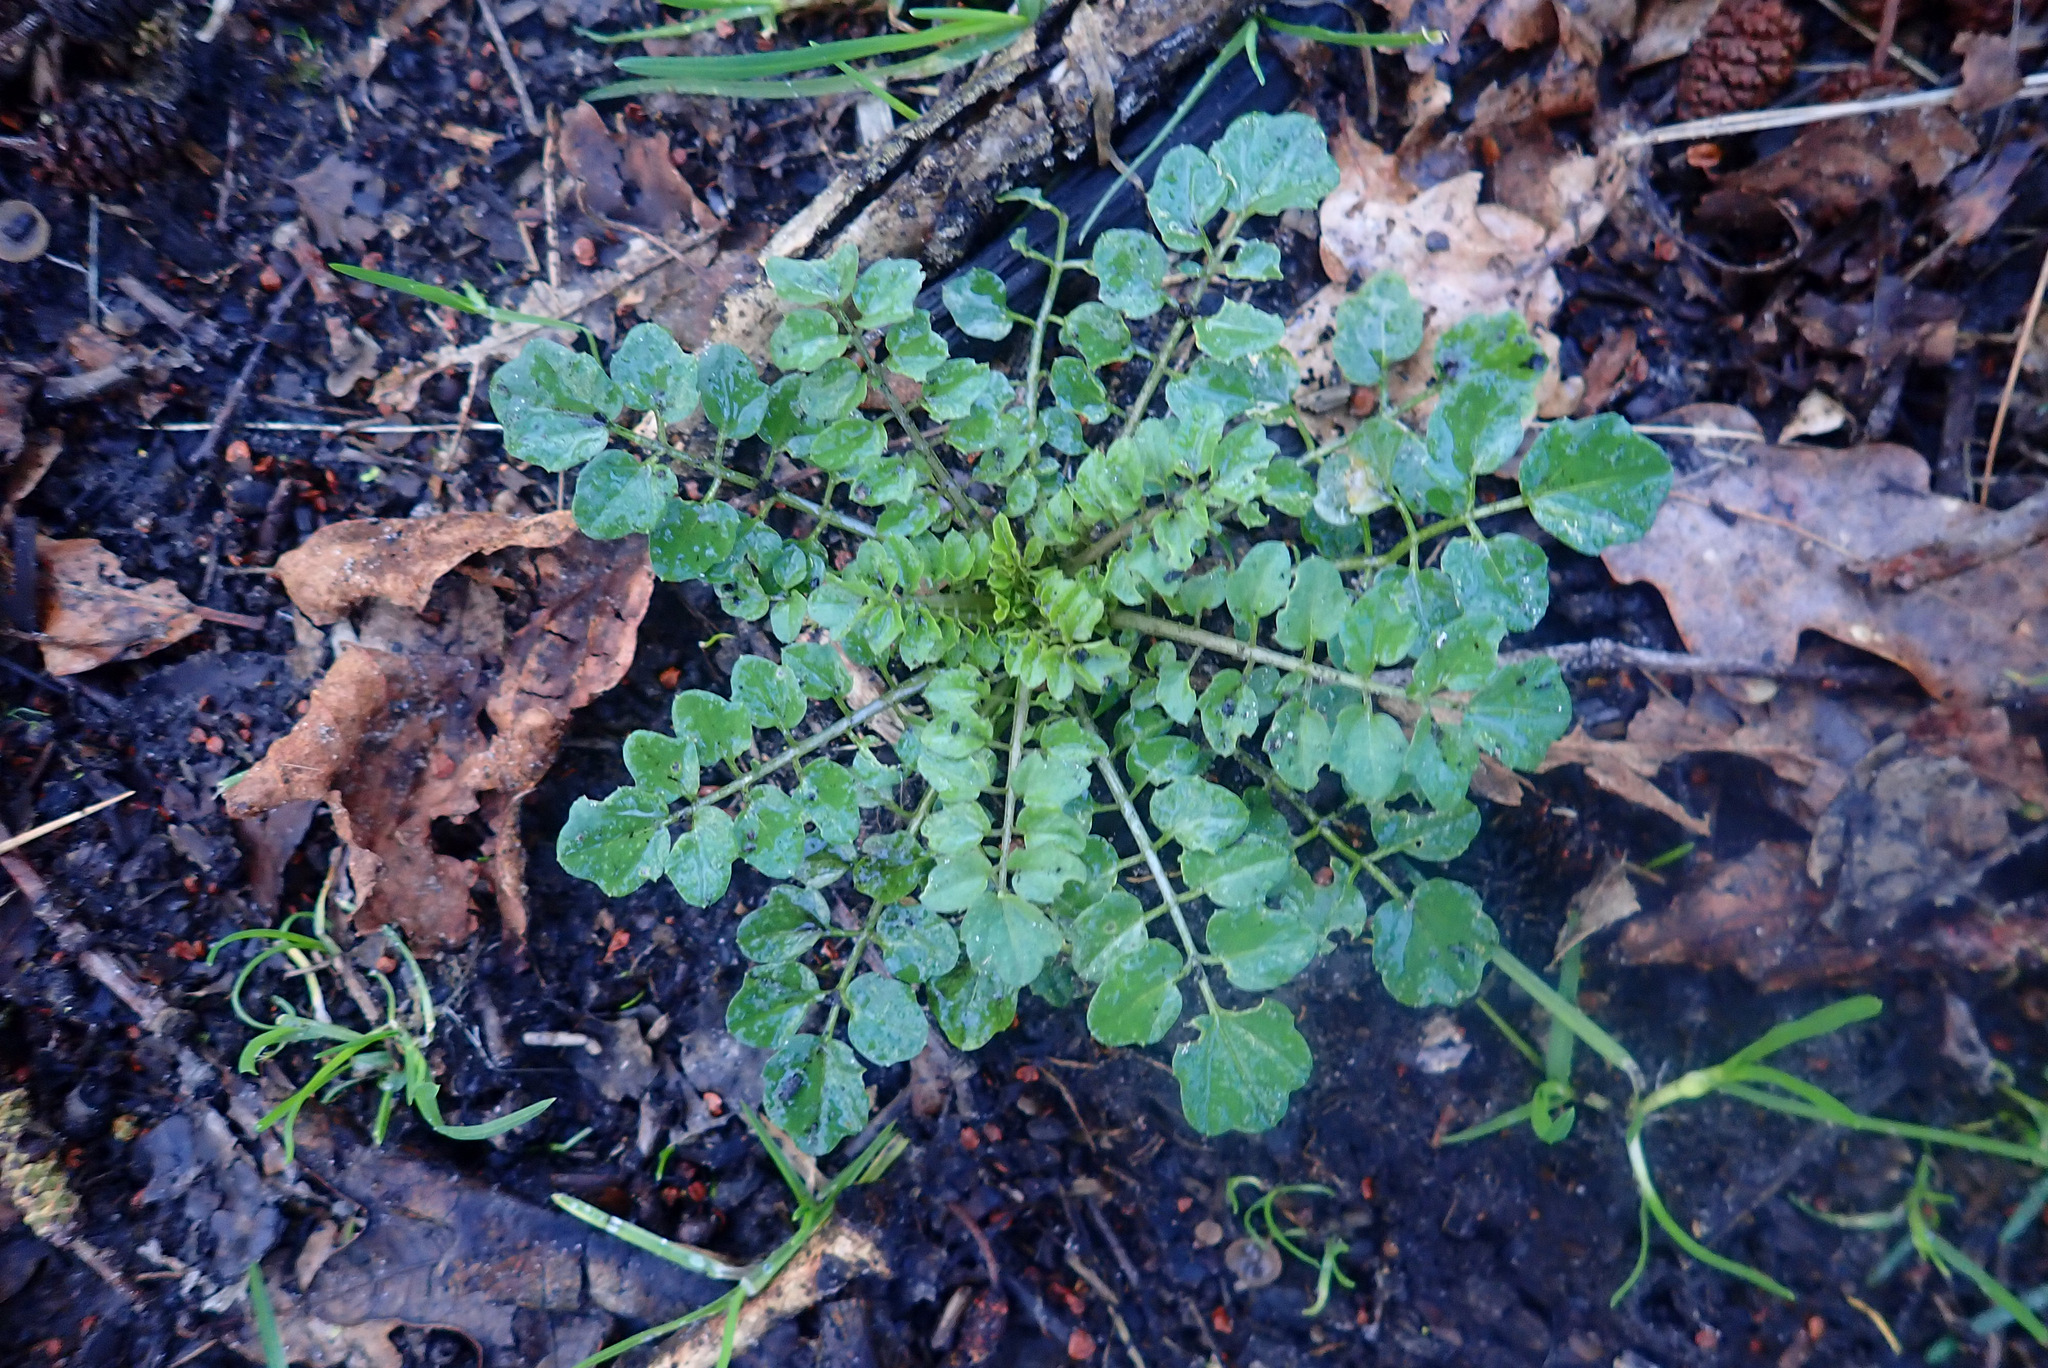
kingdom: Plantae
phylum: Tracheophyta
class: Magnoliopsida
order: Brassicales
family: Brassicaceae
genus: Cardamine
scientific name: Cardamine flexuosa
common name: Woodland bittercress
